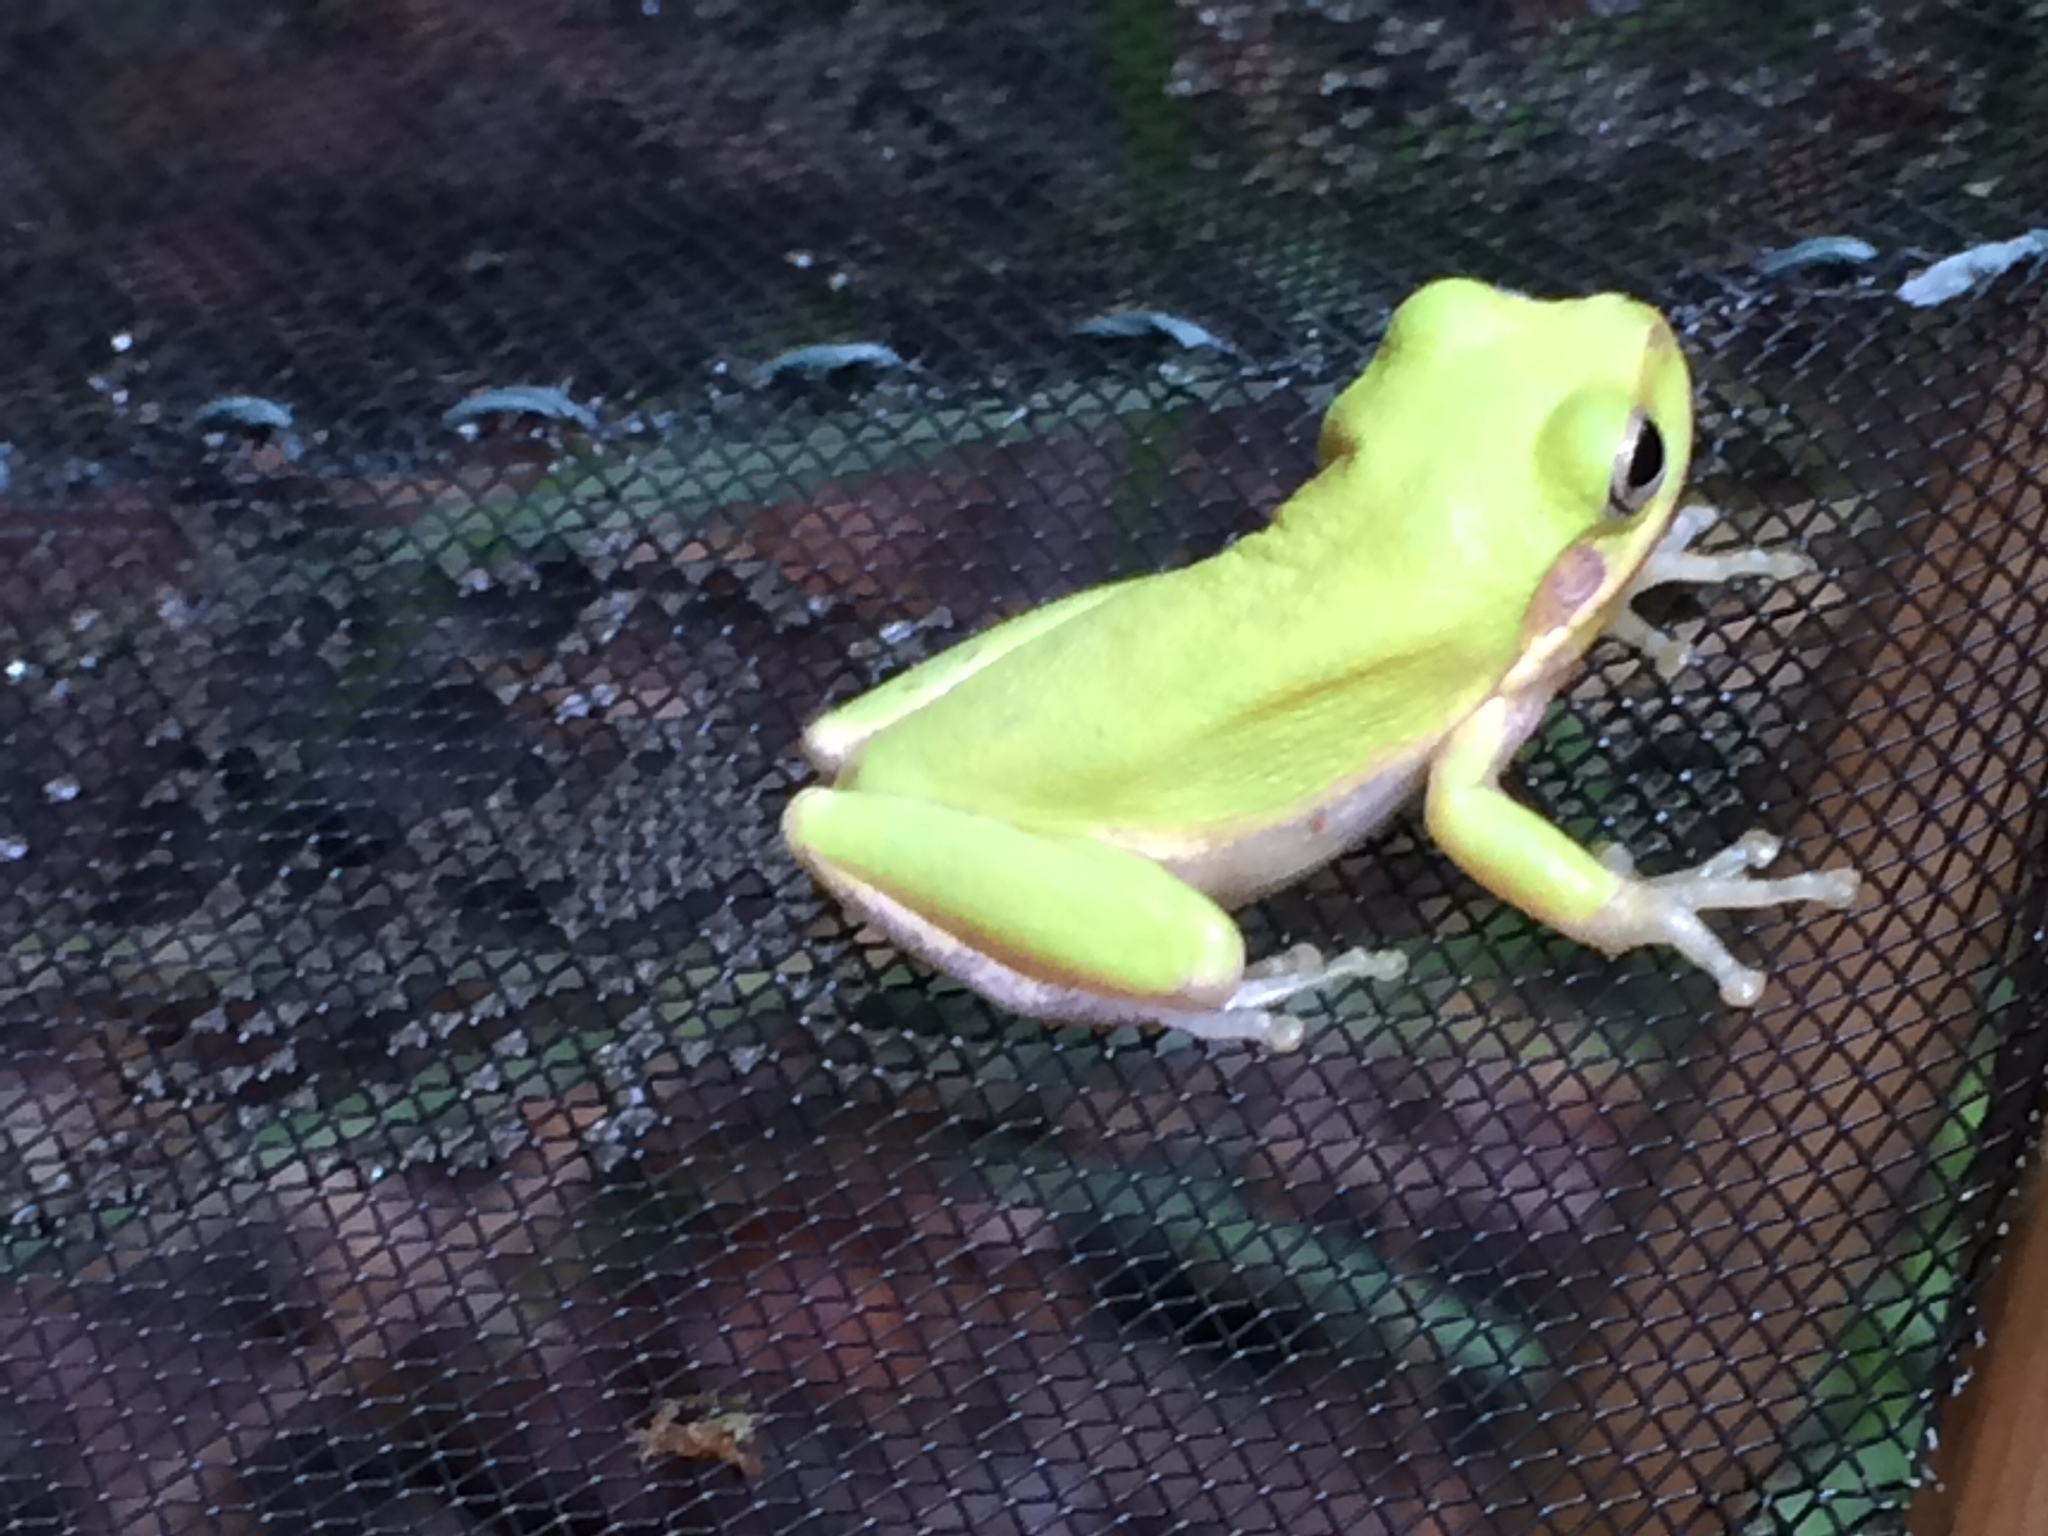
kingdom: Animalia
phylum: Chordata
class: Amphibia
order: Anura
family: Hylidae
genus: Dryophytes
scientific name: Dryophytes squirellus
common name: Squirrel treefrog
